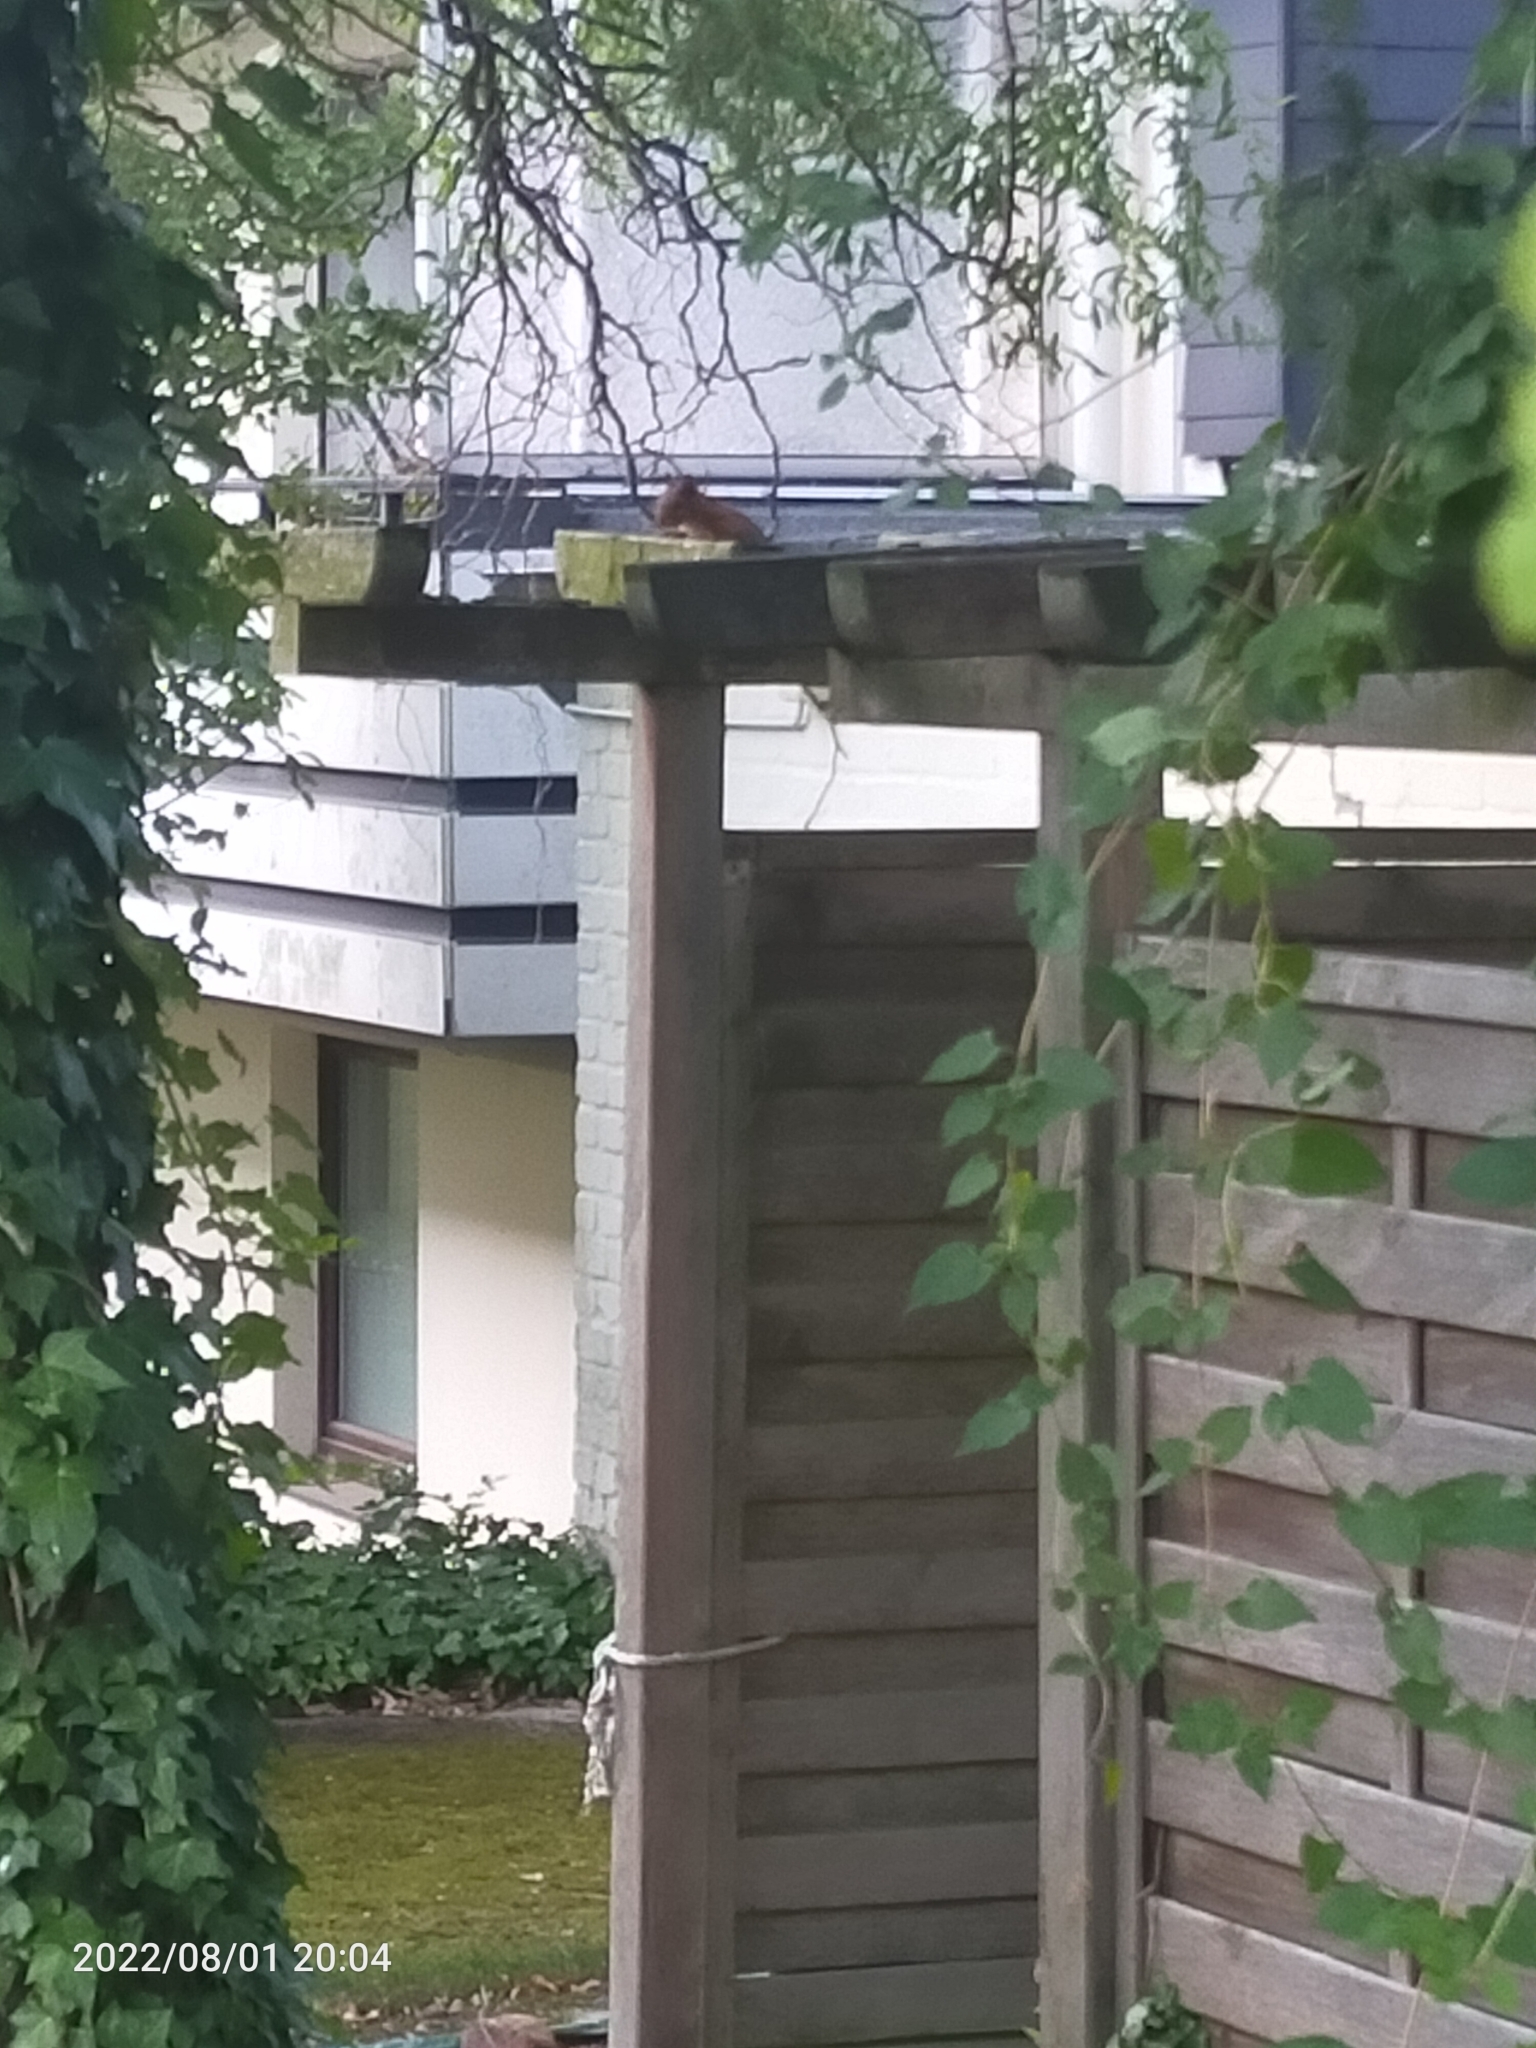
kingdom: Animalia
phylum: Chordata
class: Mammalia
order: Rodentia
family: Sciuridae
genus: Sciurus
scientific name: Sciurus vulgaris
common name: Eurasian red squirrel
